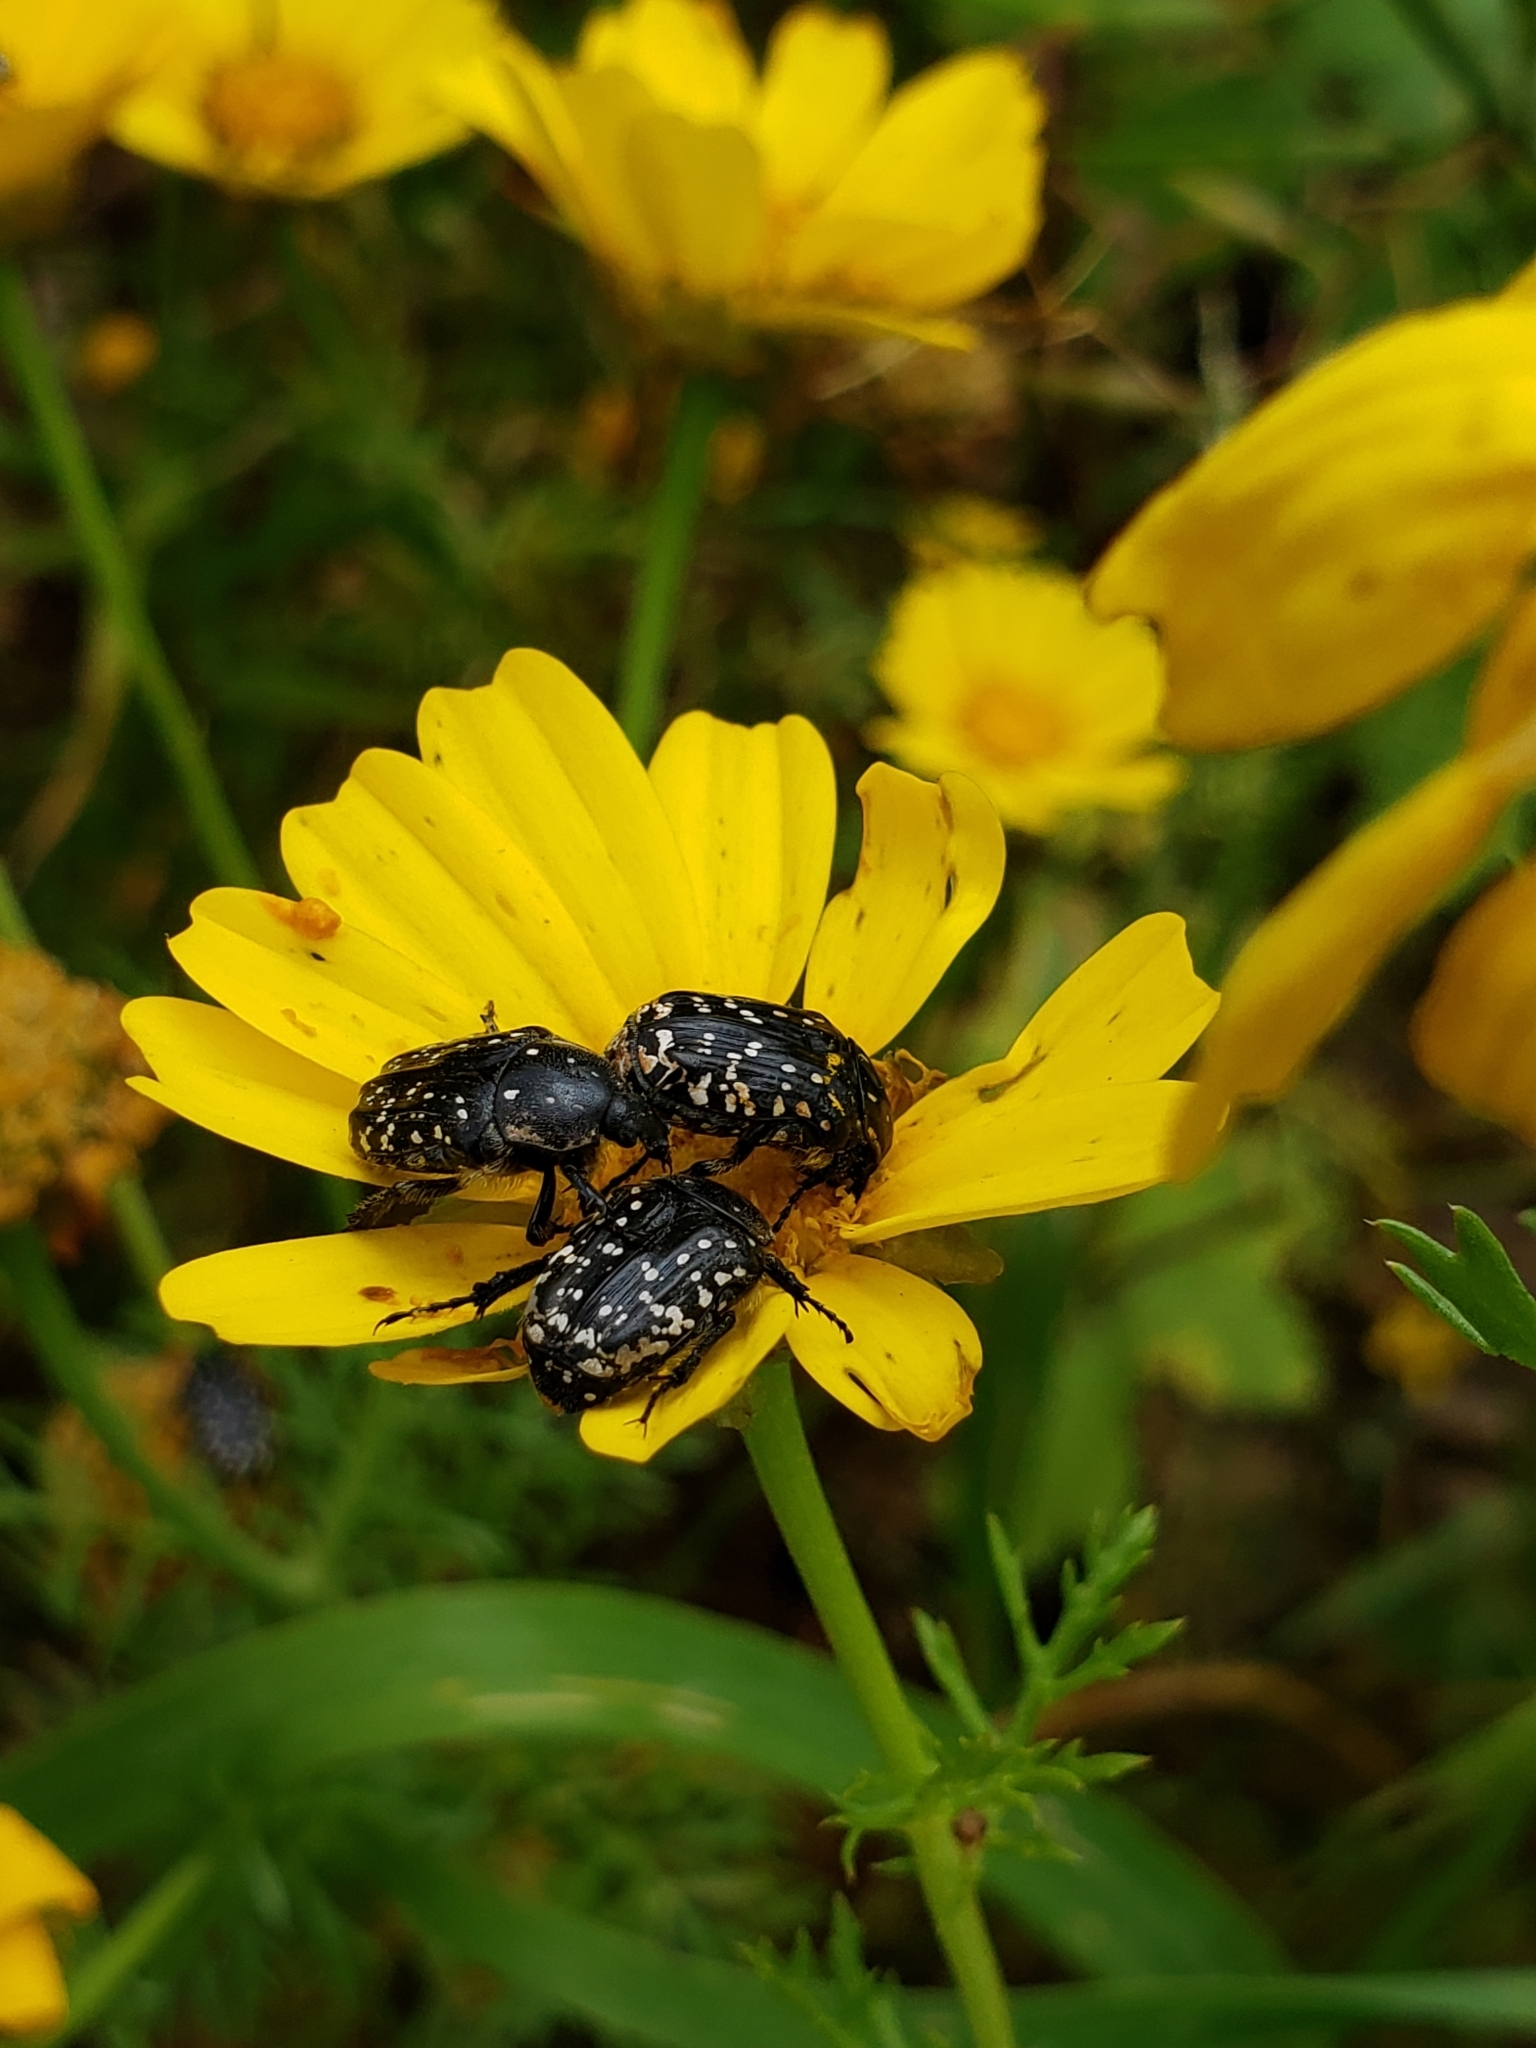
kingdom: Animalia
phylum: Arthropoda
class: Insecta
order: Coleoptera
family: Scarabaeidae
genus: Oxythyrea
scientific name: Oxythyrea noemi
